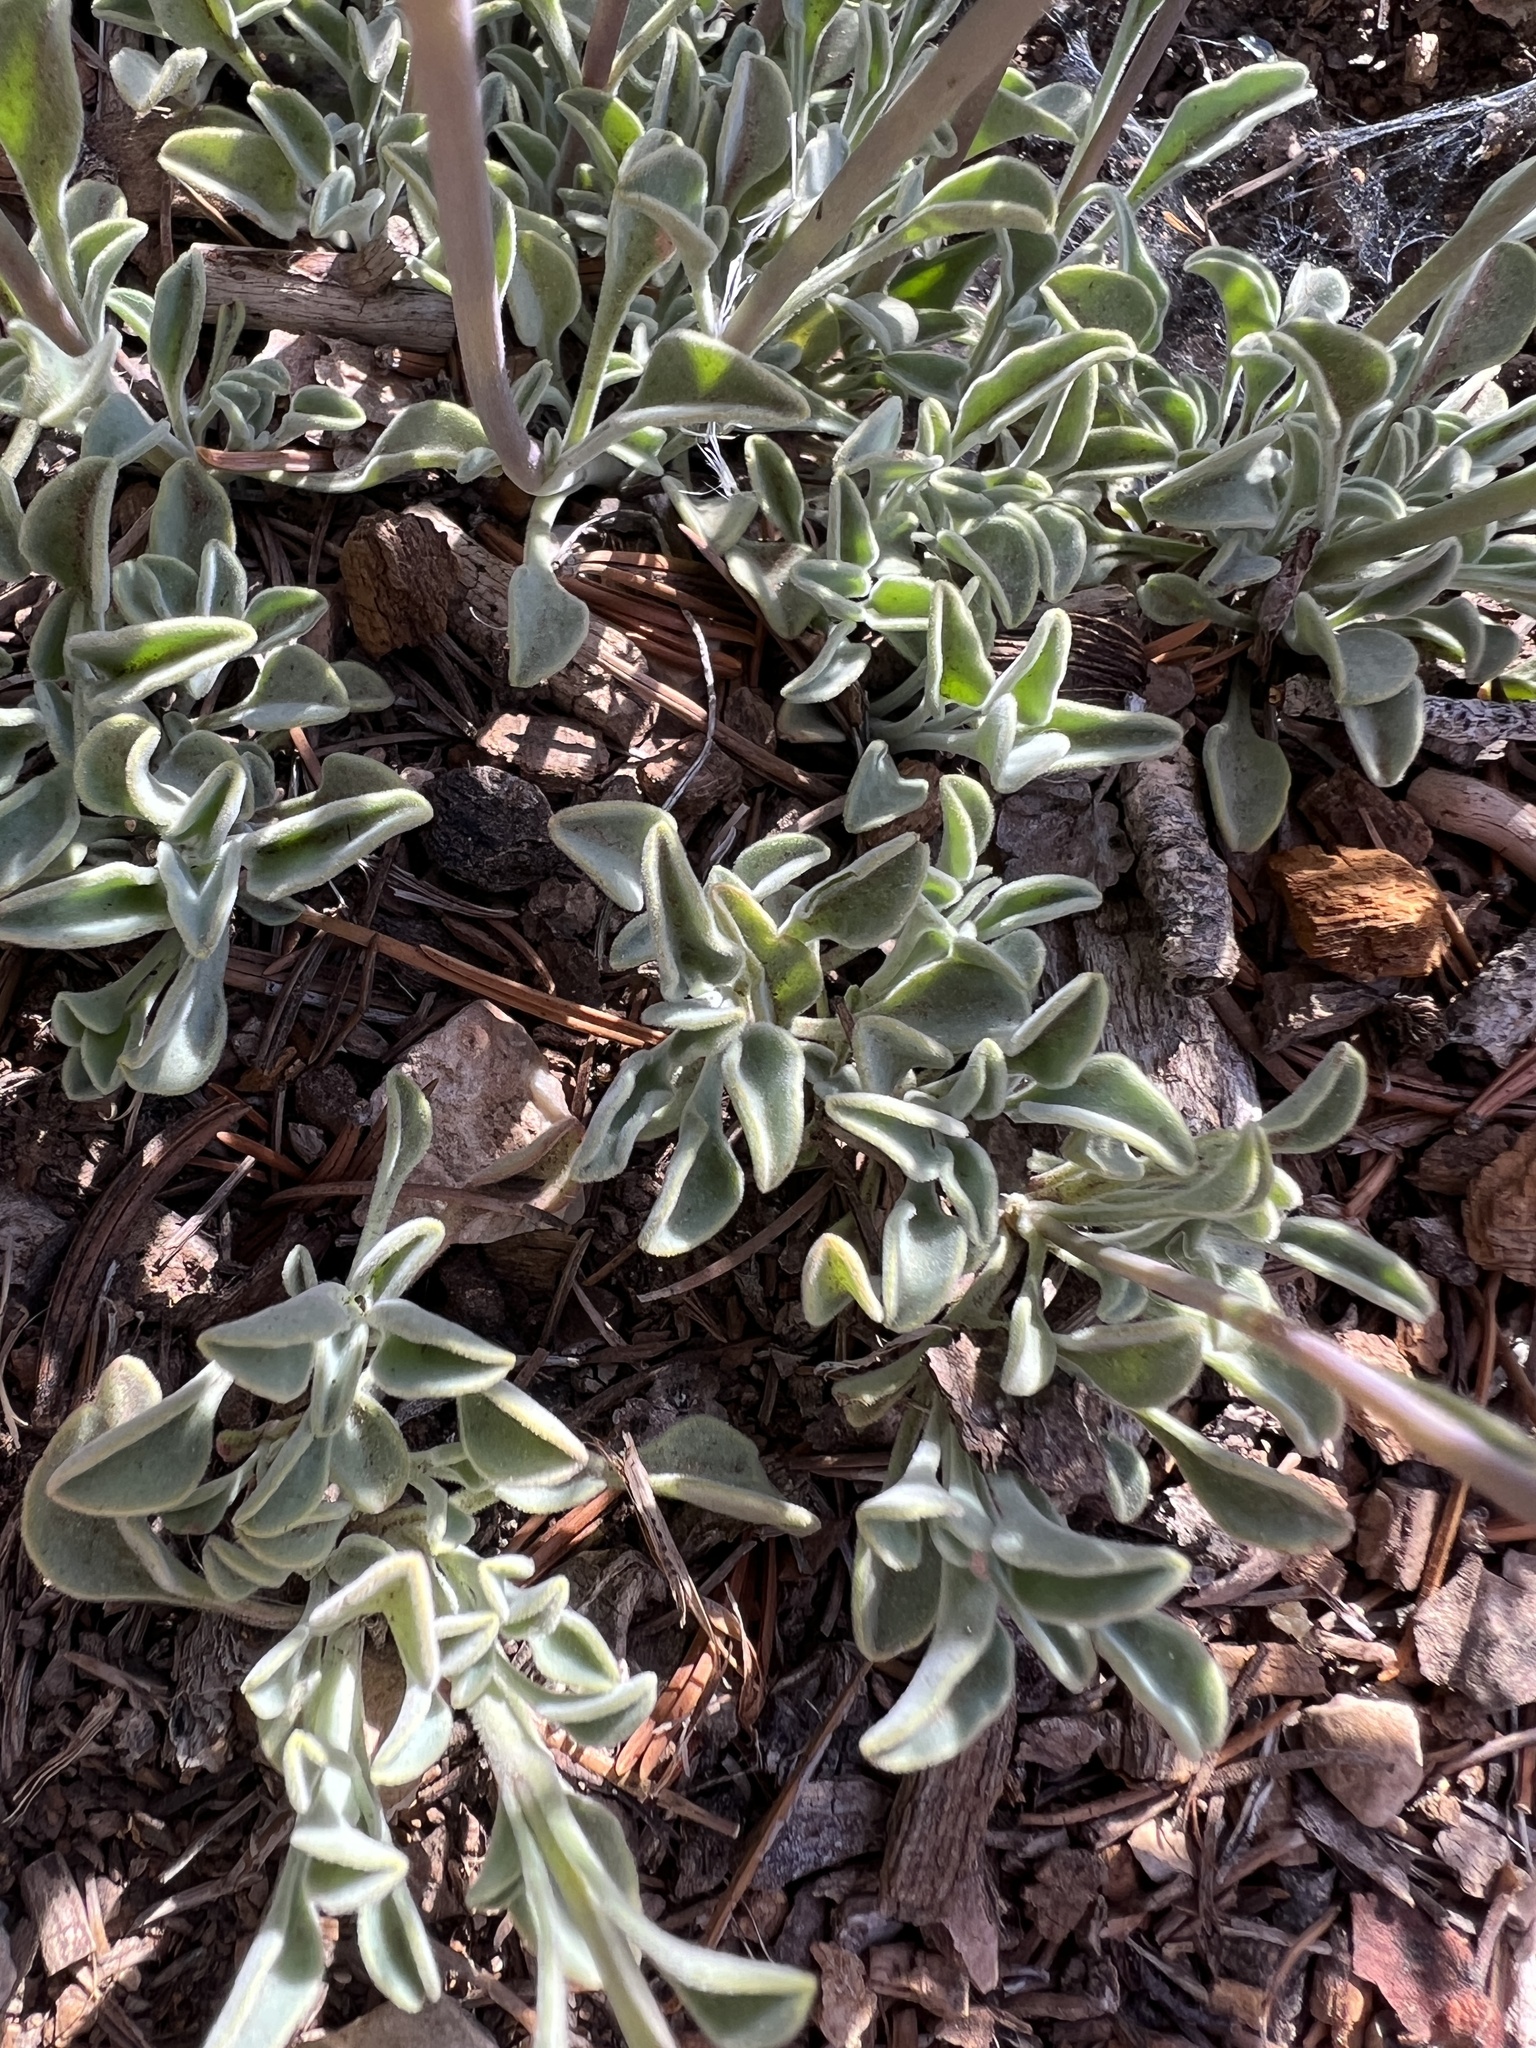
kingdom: Plantae
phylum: Tracheophyta
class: Magnoliopsida
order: Lamiales
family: Plantaginaceae
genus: Penstemon
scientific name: Penstemon scapoides
